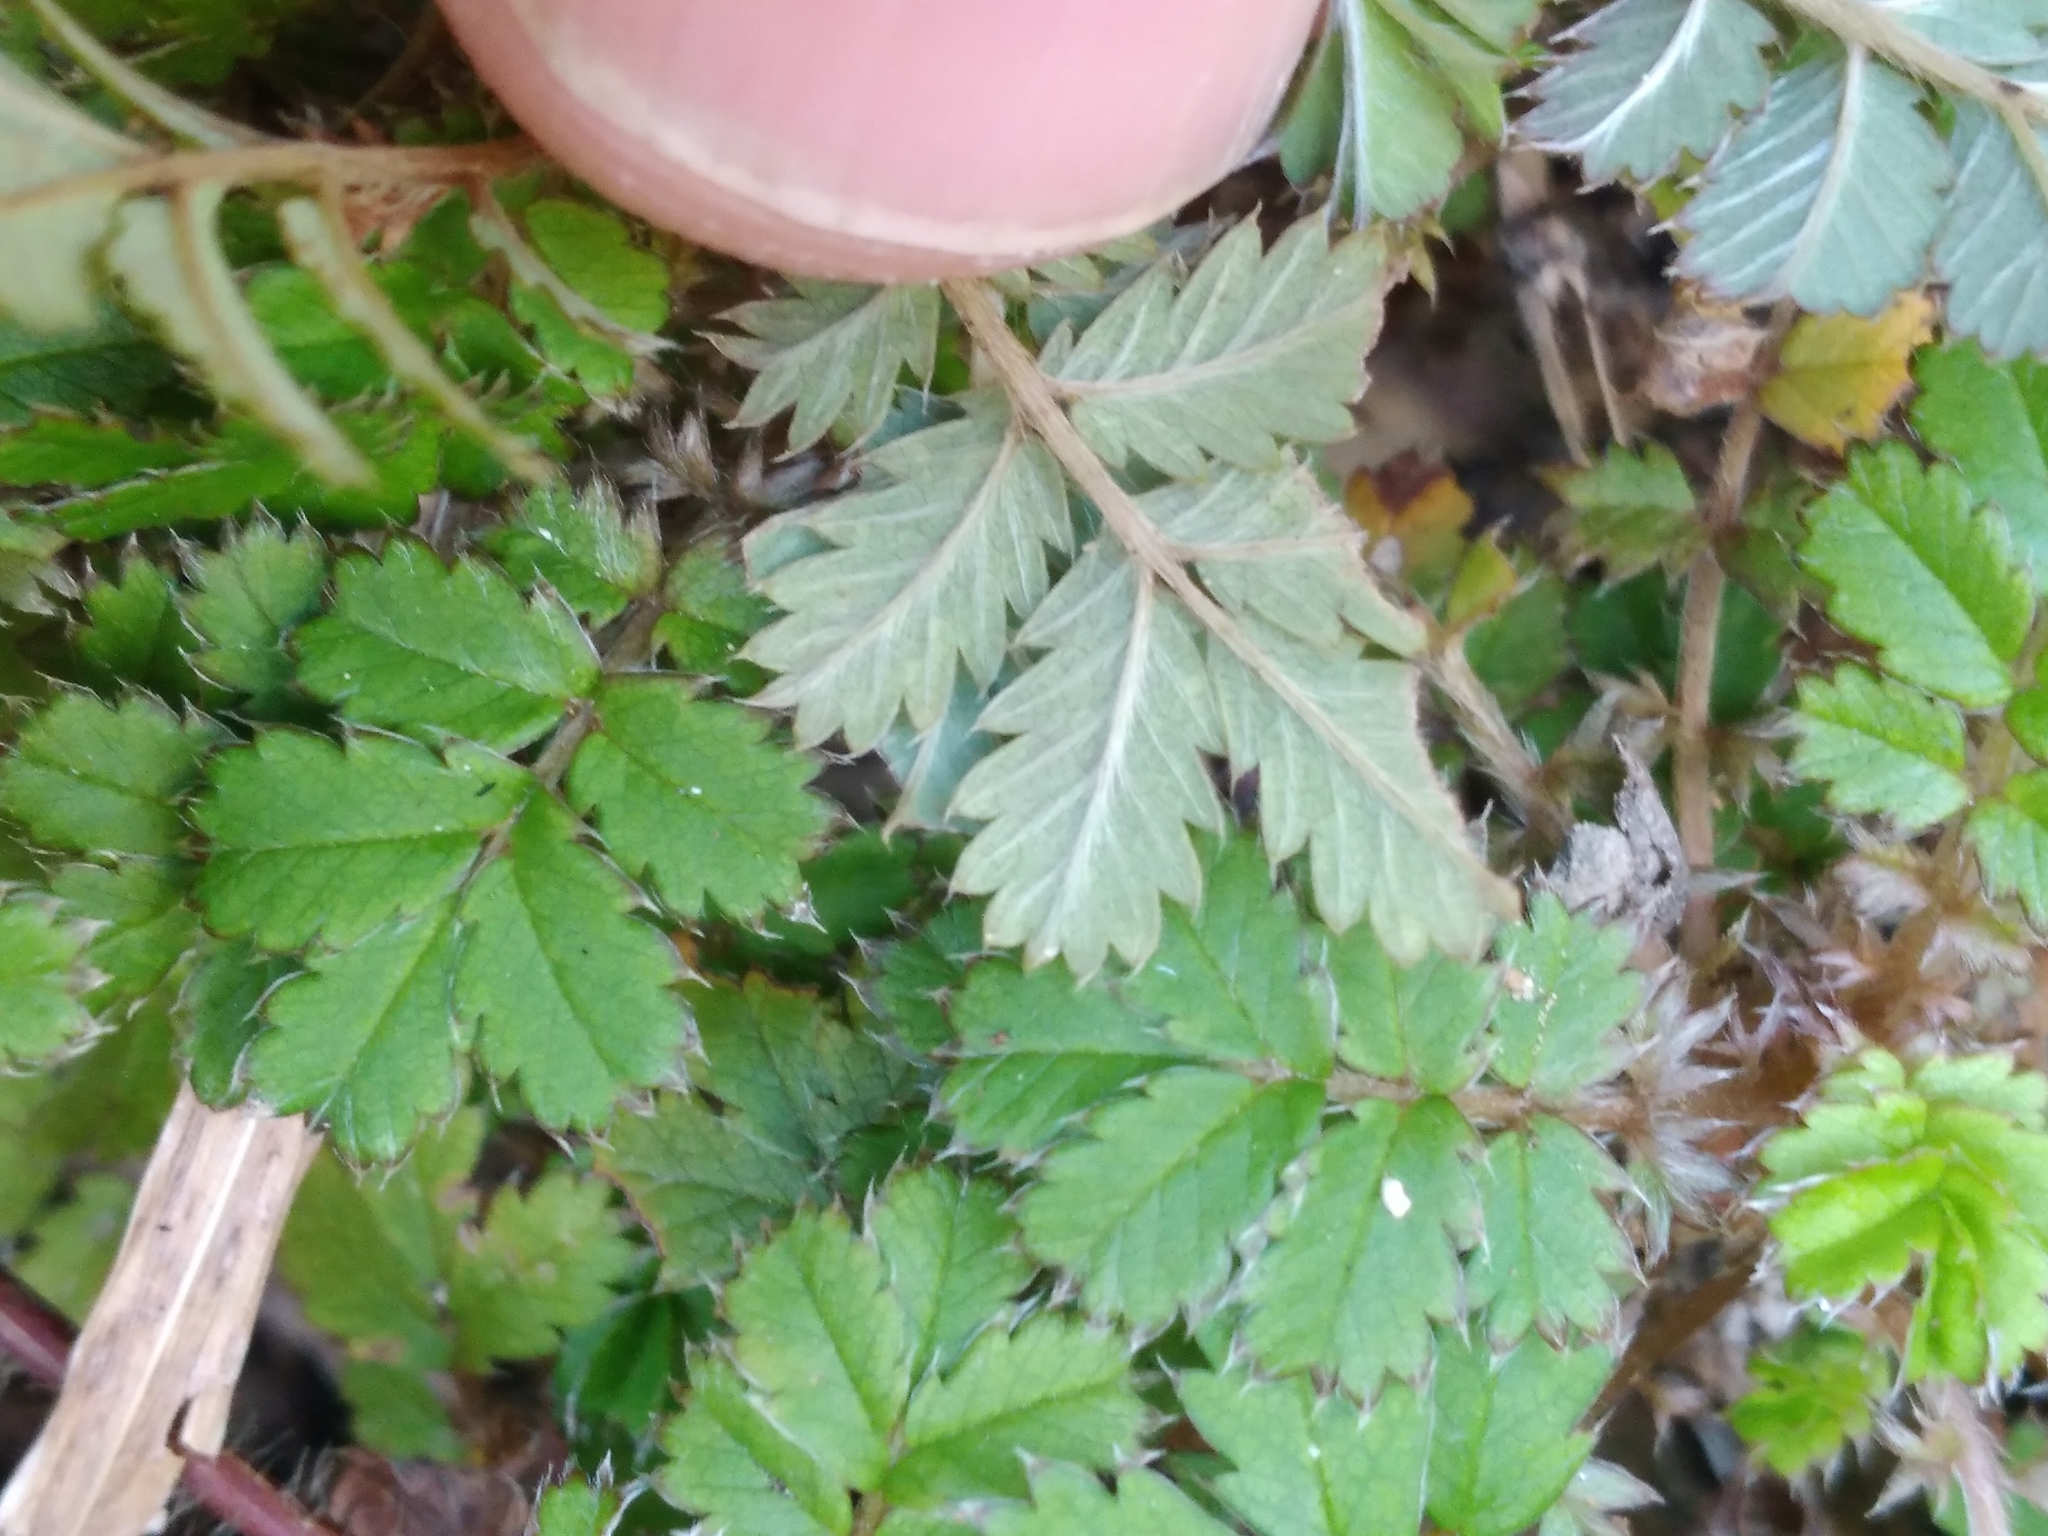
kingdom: Plantae
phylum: Tracheophyta
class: Magnoliopsida
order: Rosales
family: Rosaceae
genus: Acaena
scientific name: Acaena anserinifolia
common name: Bronze pirri-pirri-bur
